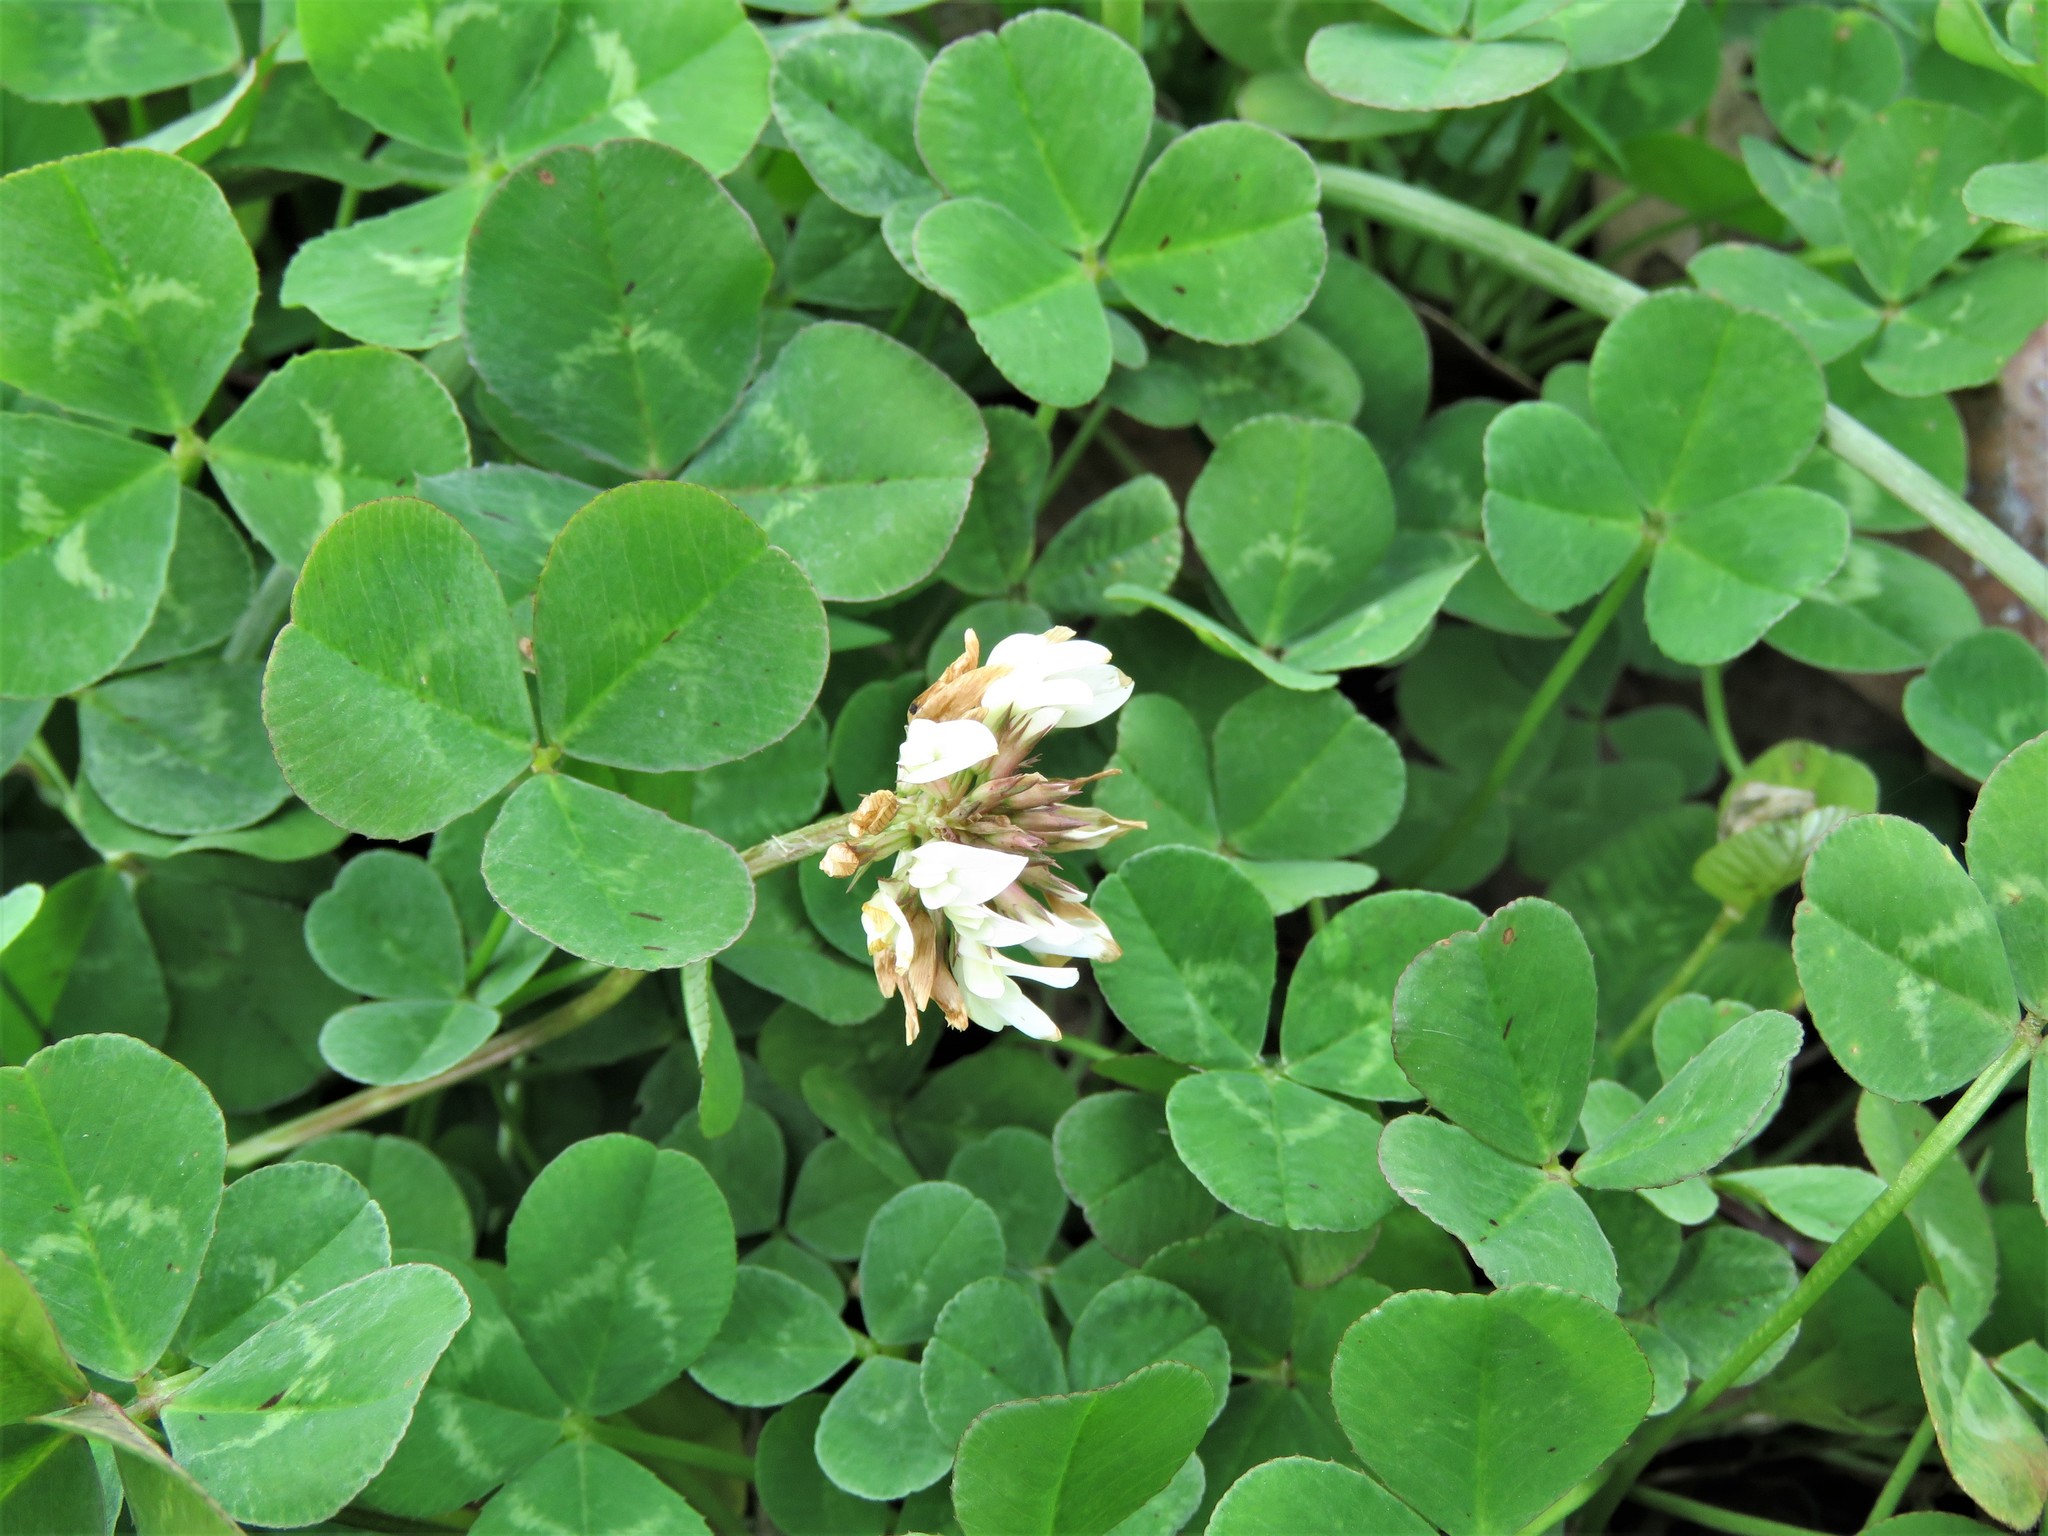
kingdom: Plantae
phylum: Tracheophyta
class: Magnoliopsida
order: Fabales
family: Fabaceae
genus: Trifolium
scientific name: Trifolium repens
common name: White clover
